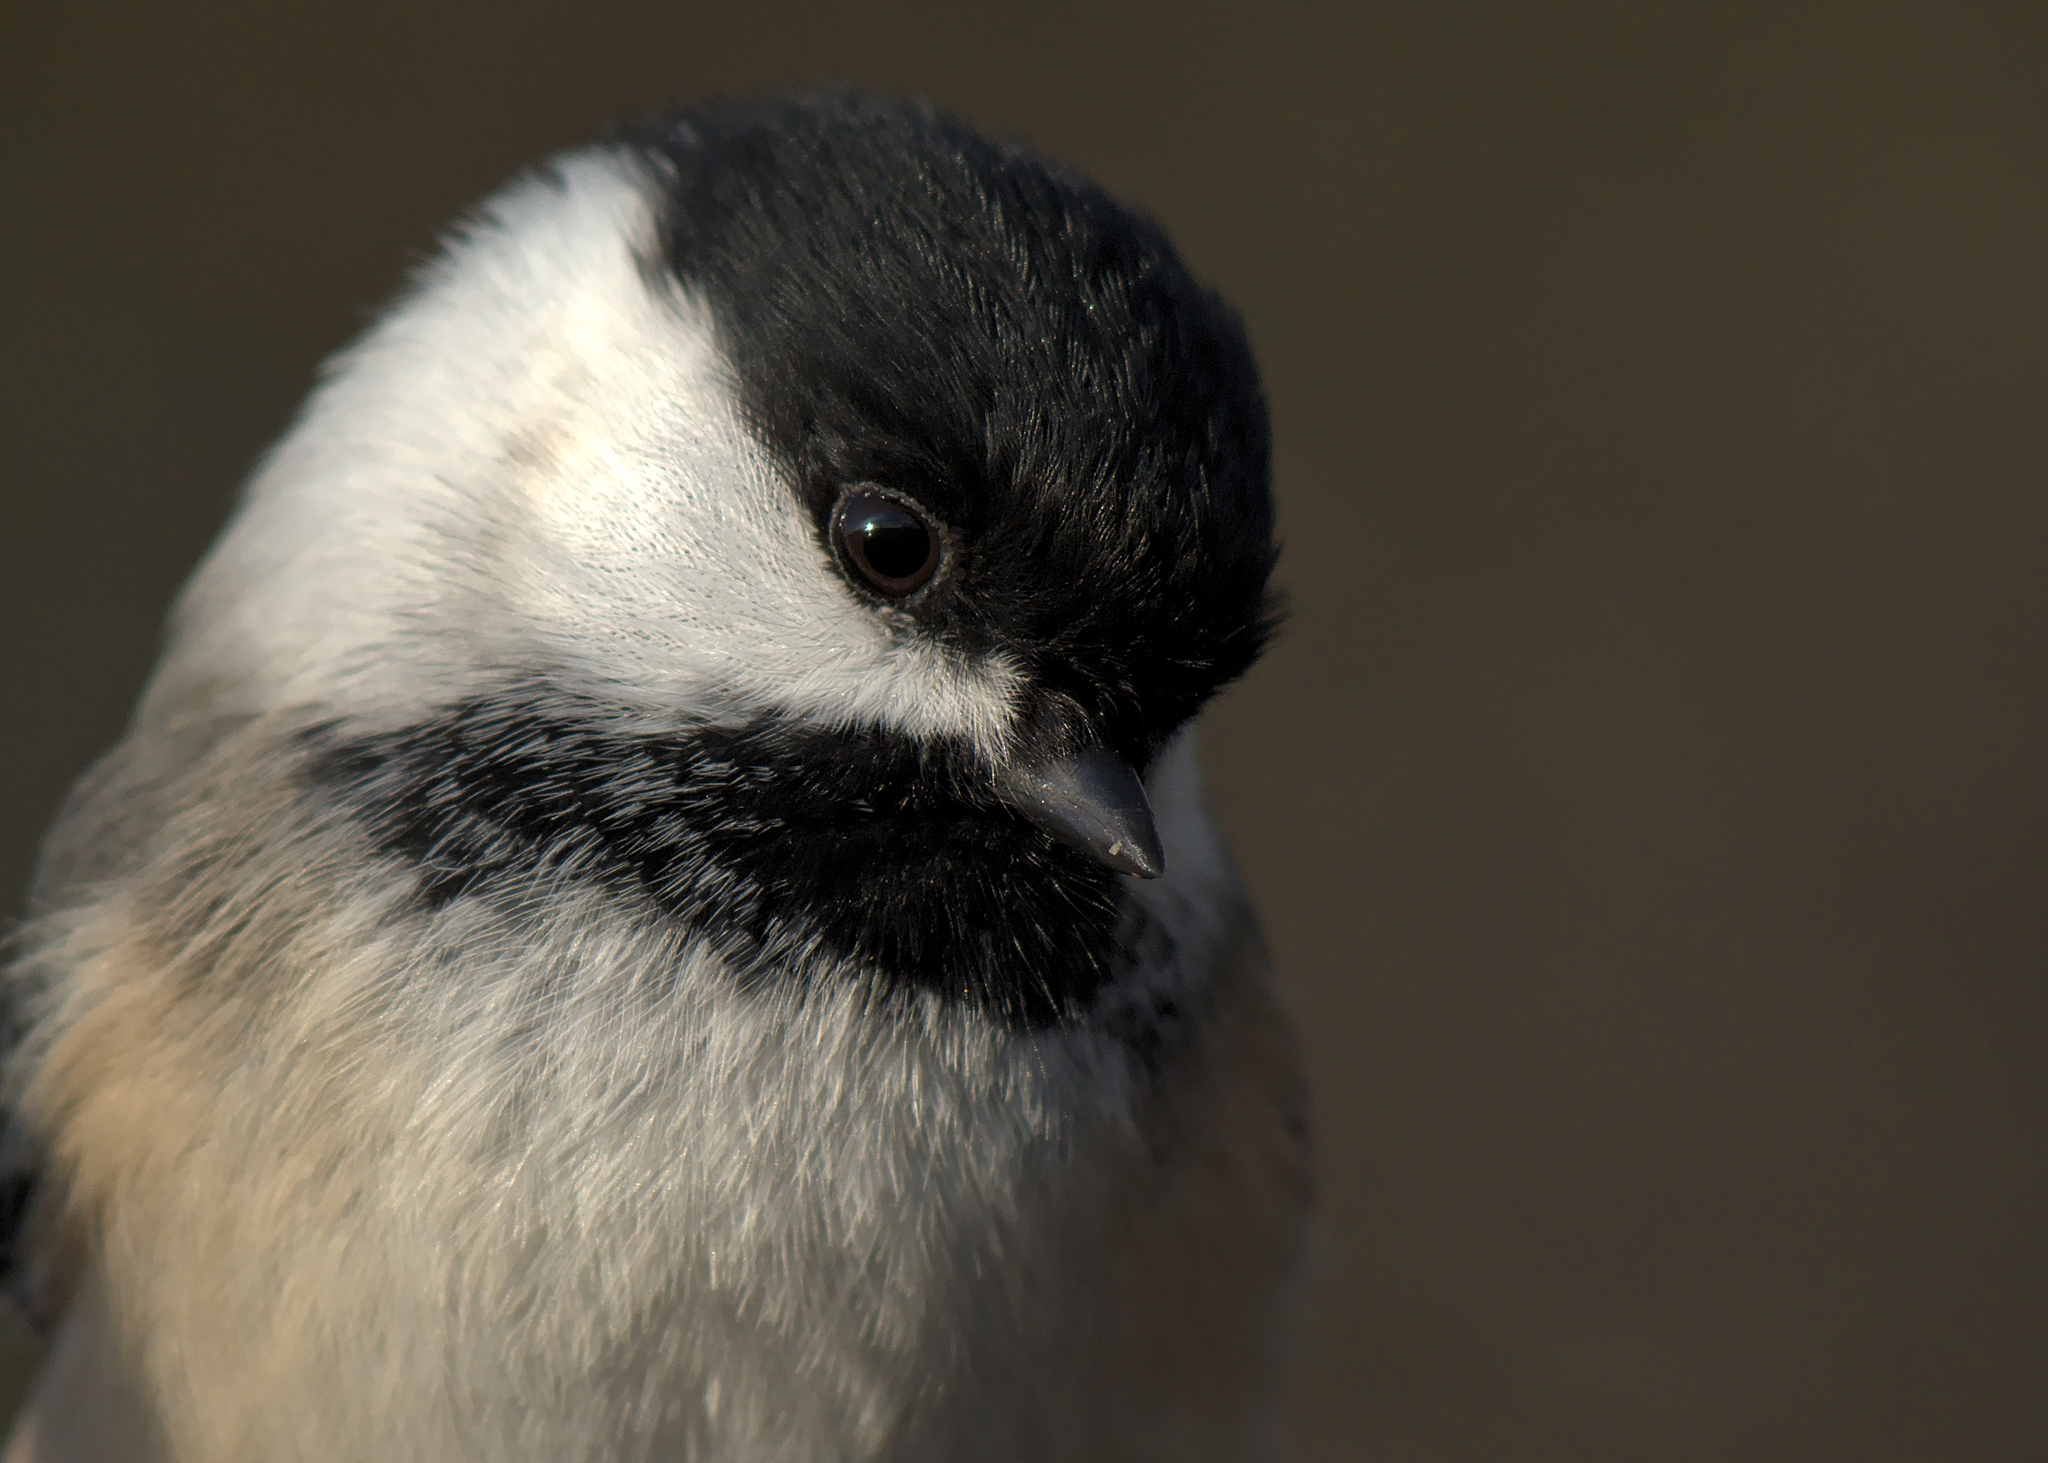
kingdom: Animalia
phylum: Chordata
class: Aves
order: Passeriformes
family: Paridae
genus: Poecile
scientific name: Poecile atricapillus
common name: Black-capped chickadee
